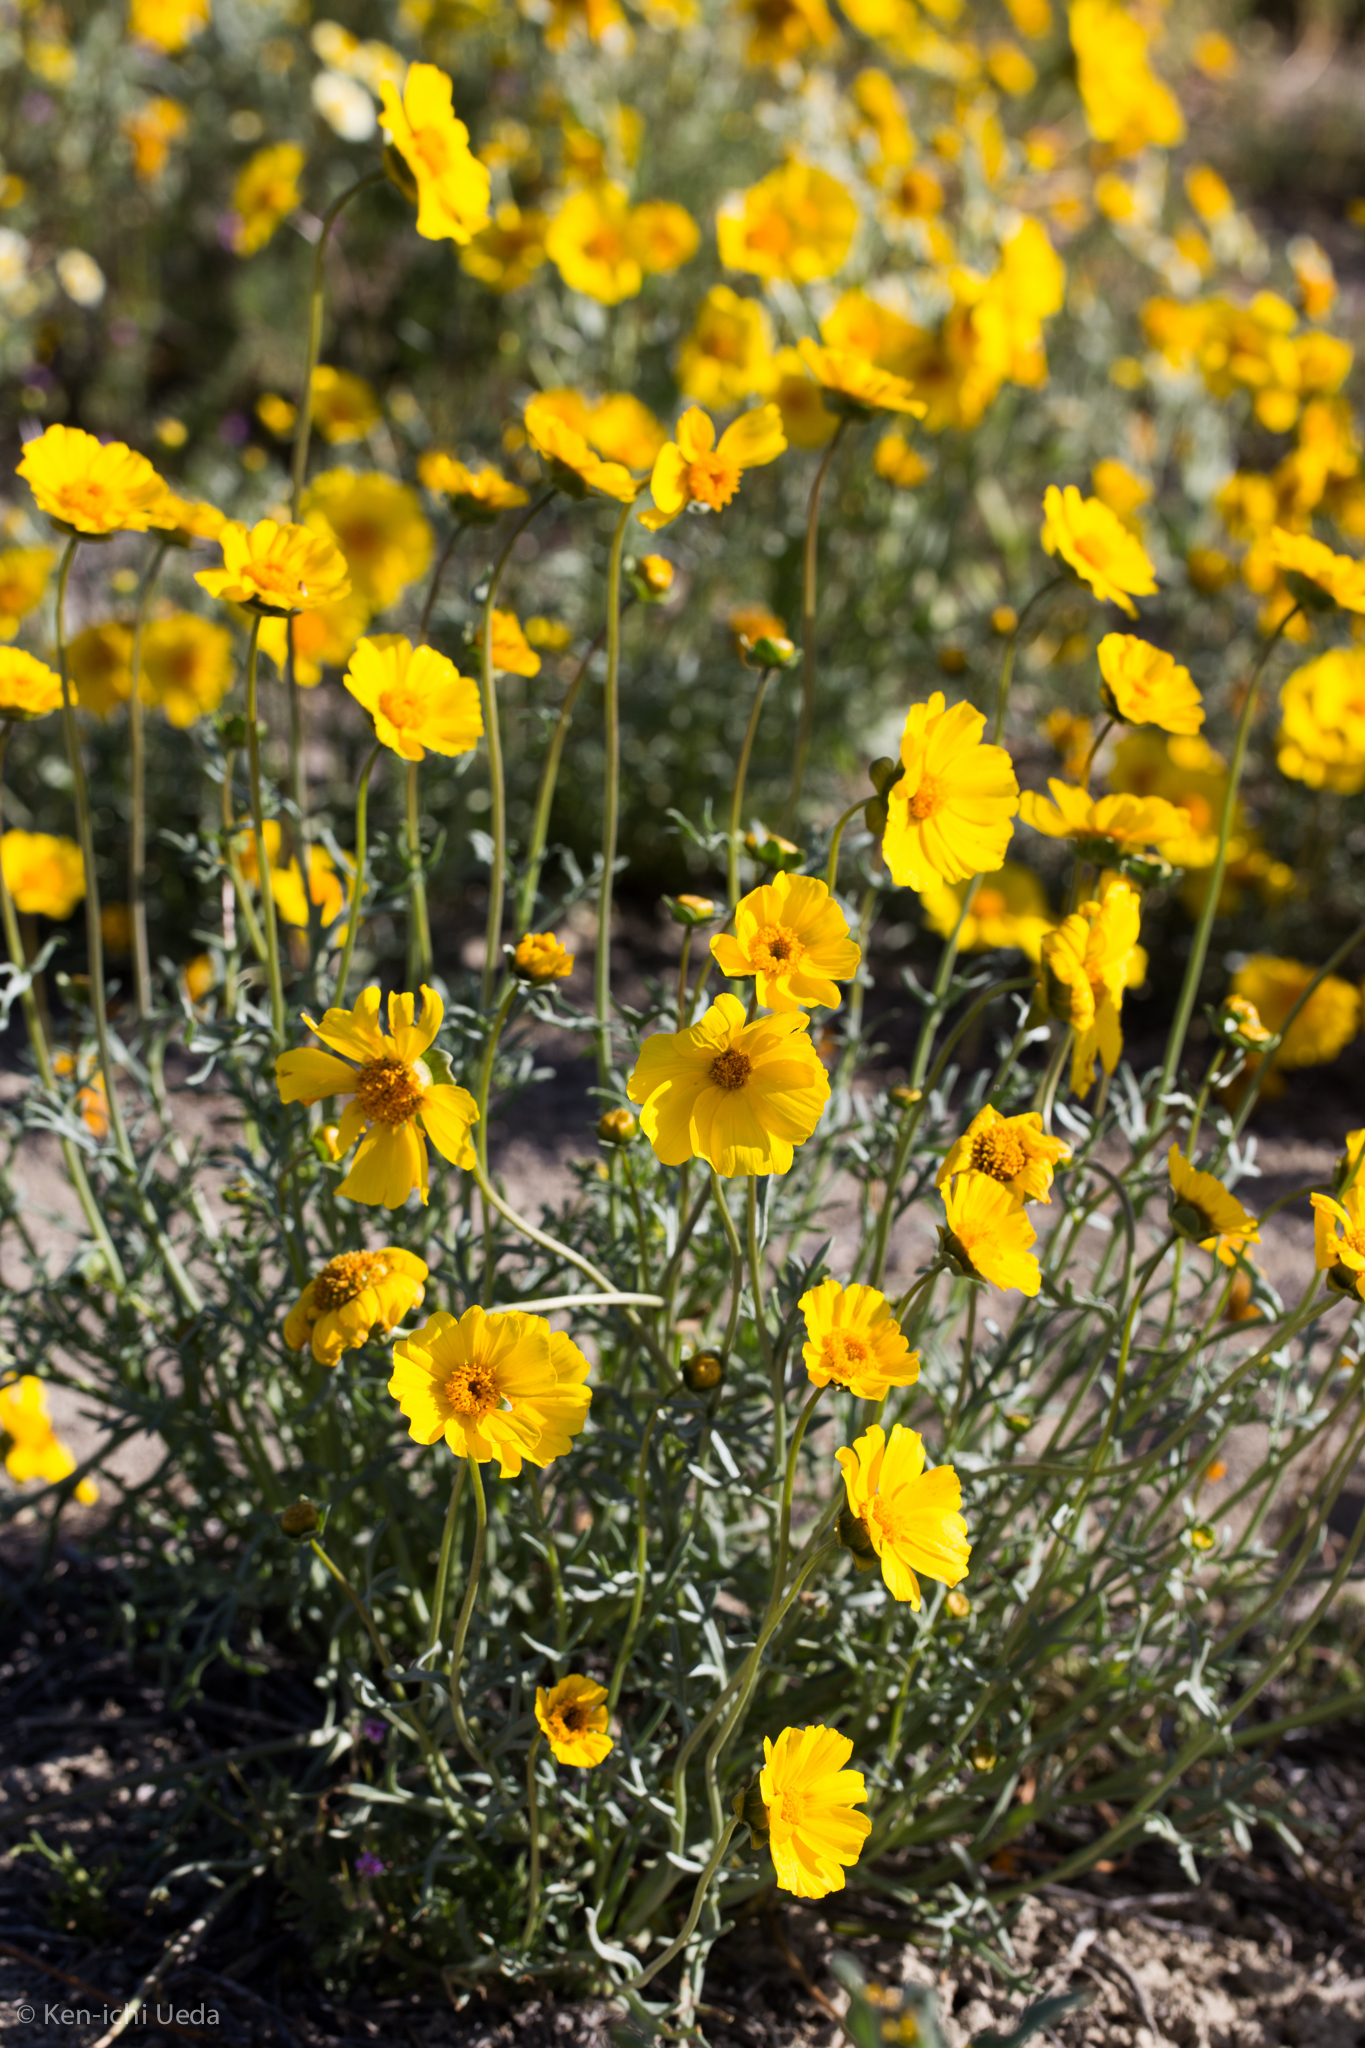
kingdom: Plantae
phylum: Tracheophyta
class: Magnoliopsida
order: Asterales
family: Asteraceae
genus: Coreopsis
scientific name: Coreopsis calliopsidea
